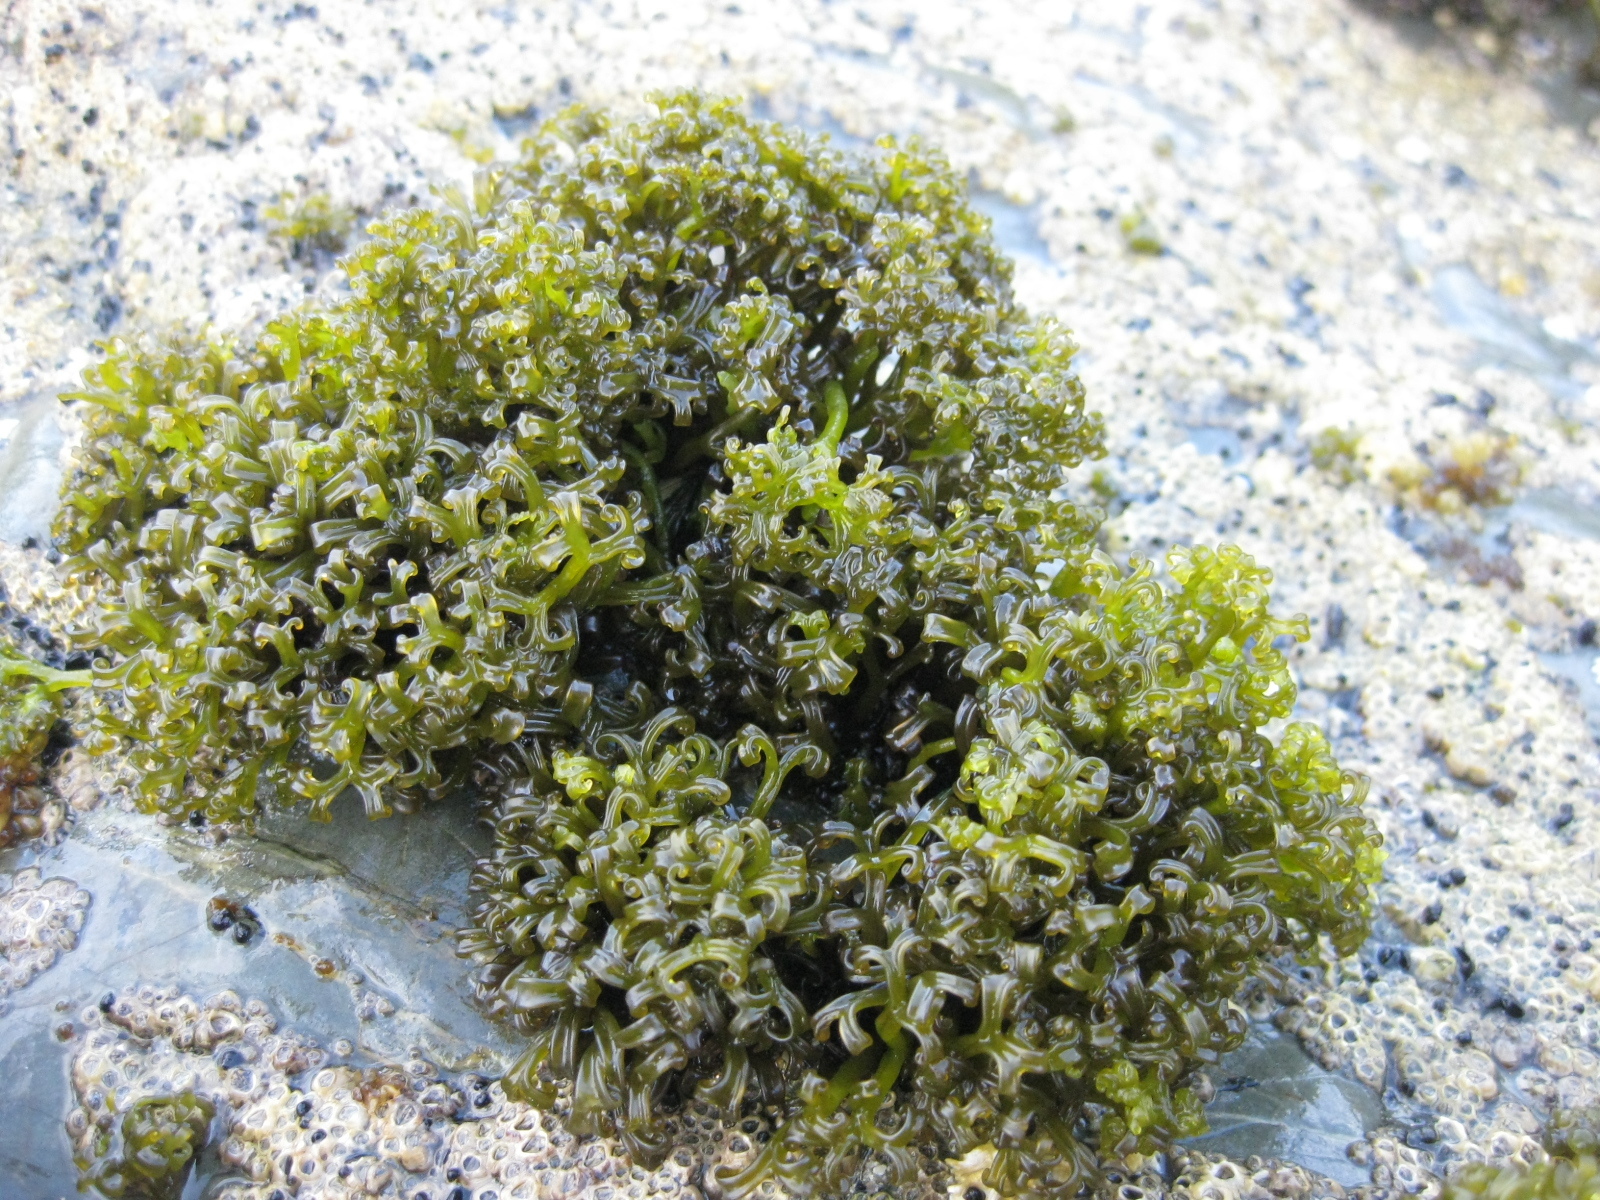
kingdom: Plantae
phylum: Rhodophyta
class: Florideophyceae
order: Gigartinales
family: Gigartinaceae
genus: Psilophycus
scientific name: Psilophycus alveatus
